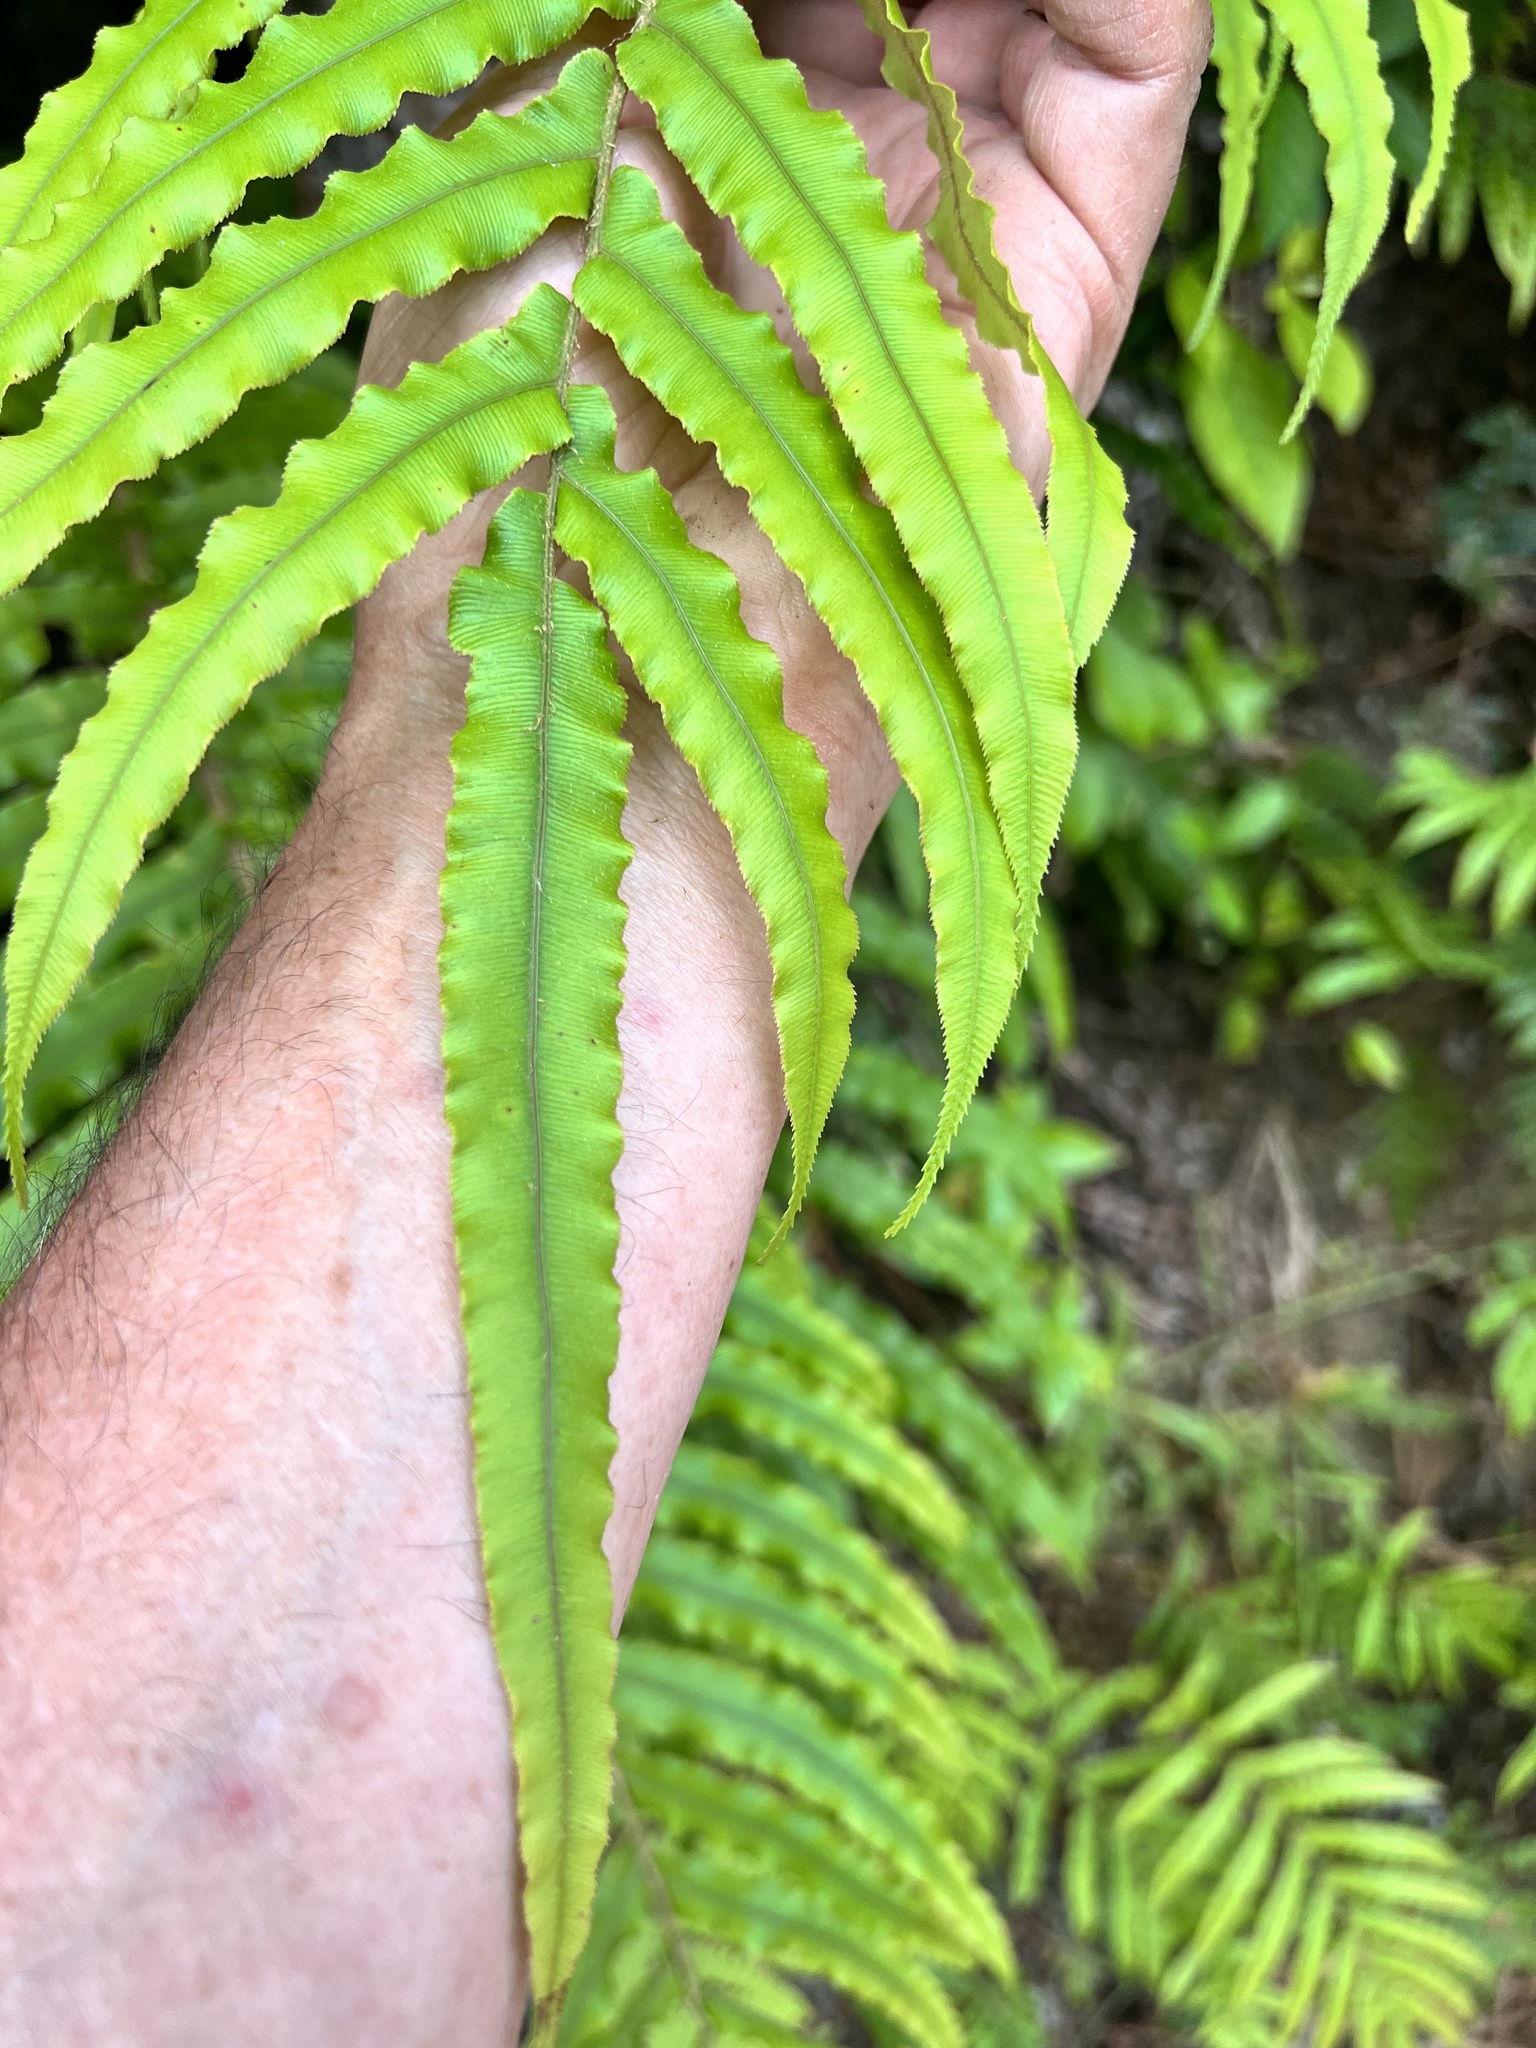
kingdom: Plantae
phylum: Tracheophyta
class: Polypodiopsida
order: Polypodiales
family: Blechnaceae
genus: Parablechnum
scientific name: Parablechnum novae-zelandiae
